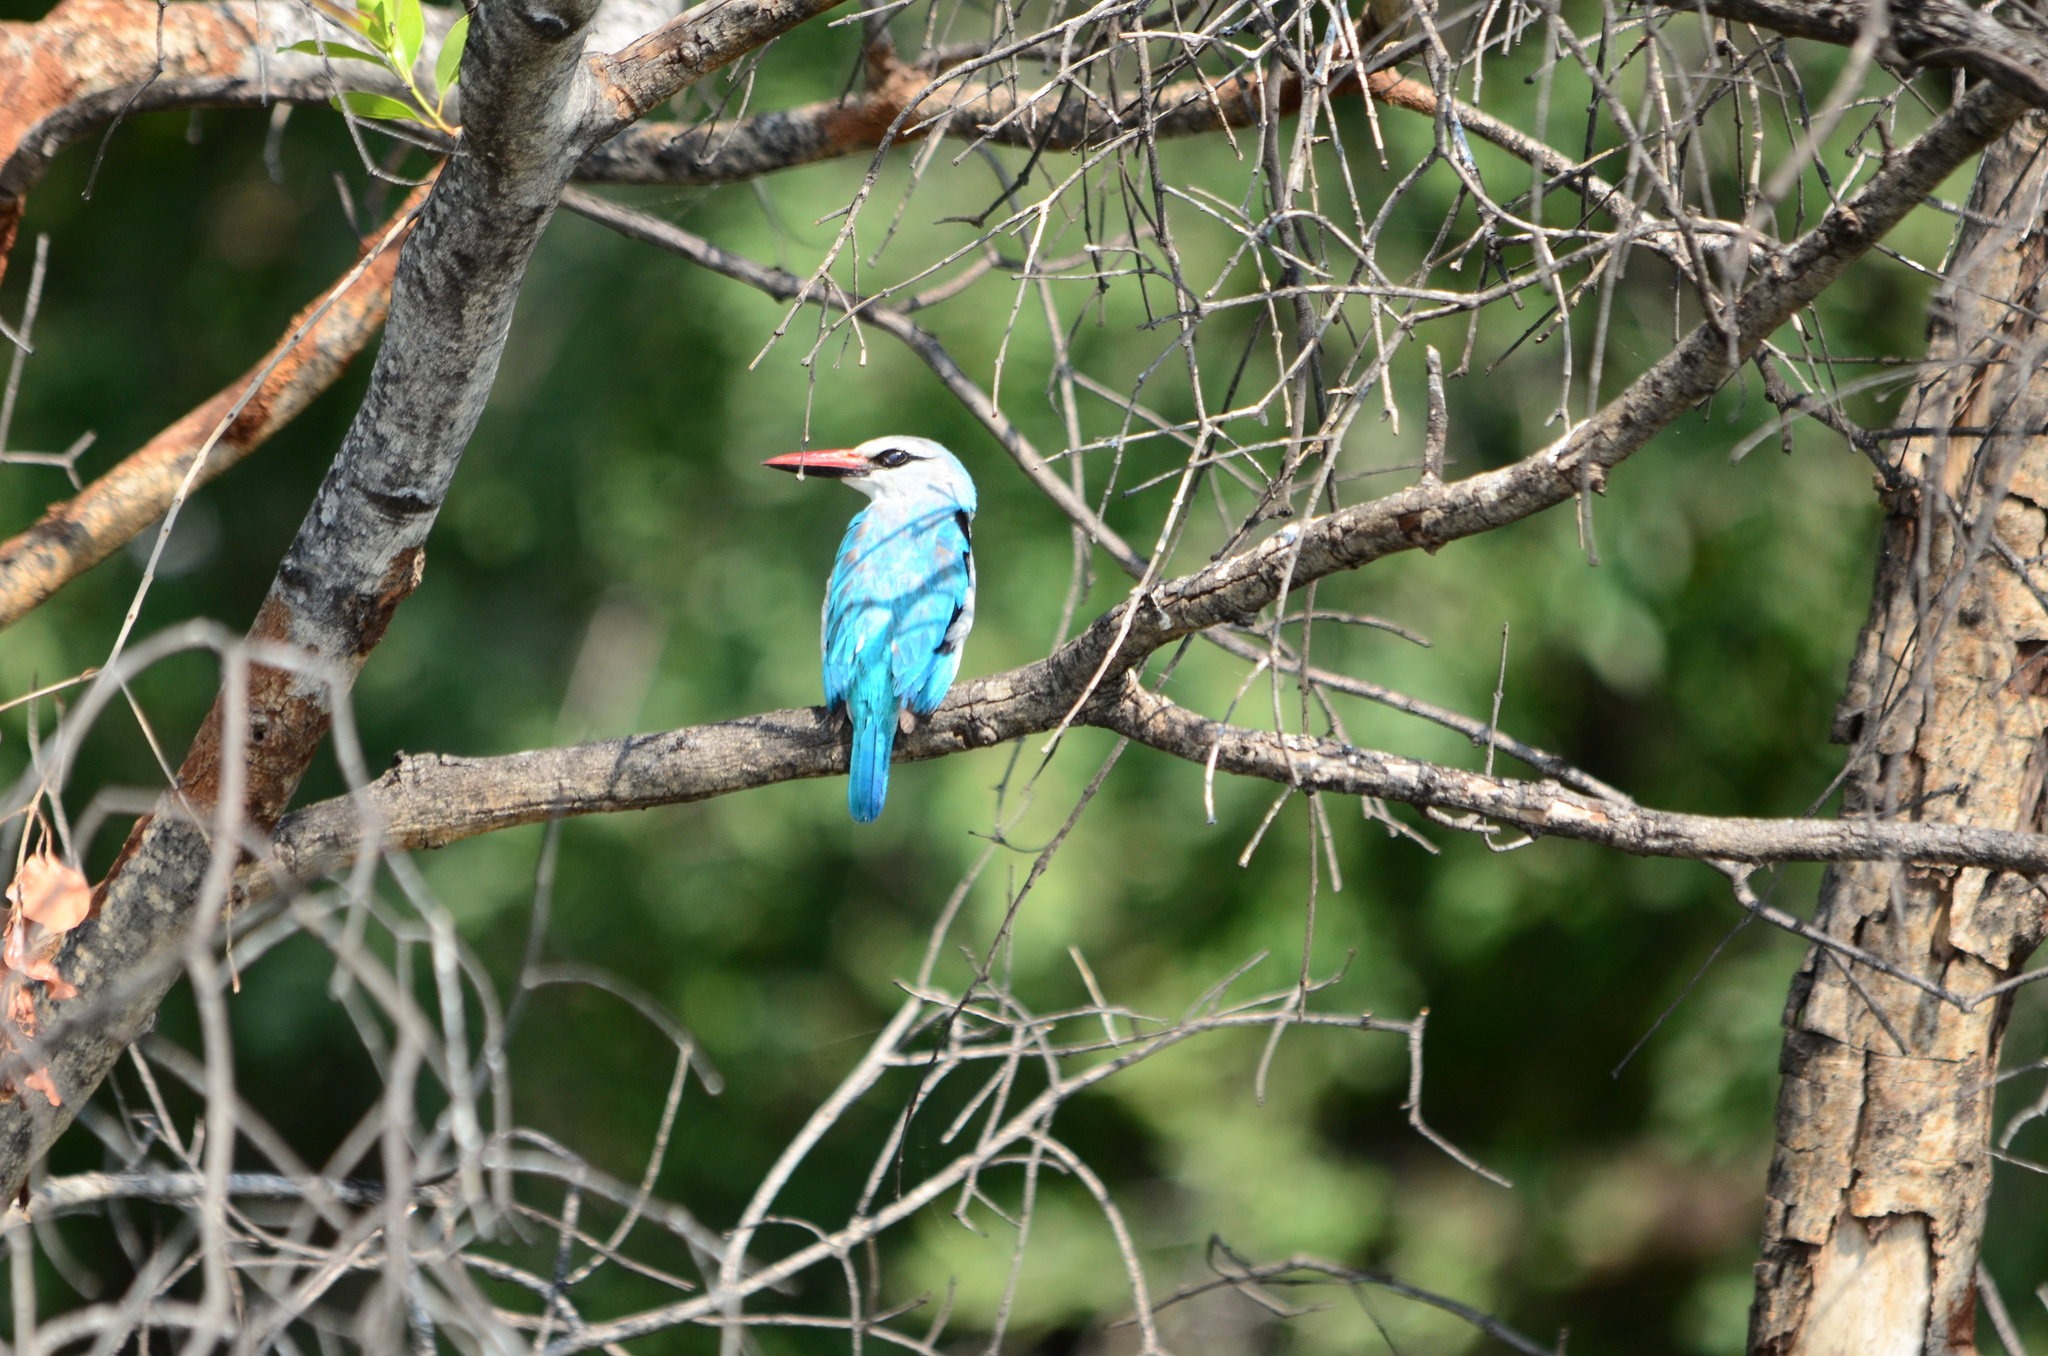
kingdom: Animalia
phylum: Chordata
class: Aves
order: Coraciiformes
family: Alcedinidae
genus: Halcyon
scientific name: Halcyon senegalensis
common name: Woodland kingfisher
